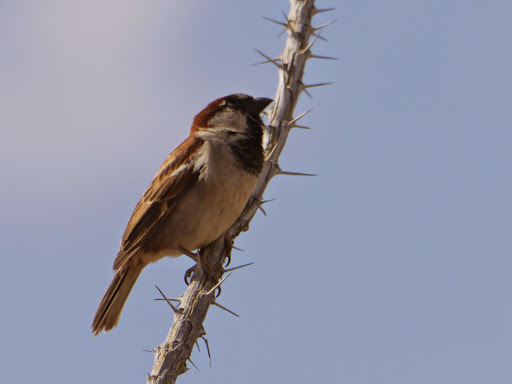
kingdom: Animalia
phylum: Chordata
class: Aves
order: Passeriformes
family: Passeridae
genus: Passer
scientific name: Passer domesticus
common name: House sparrow
